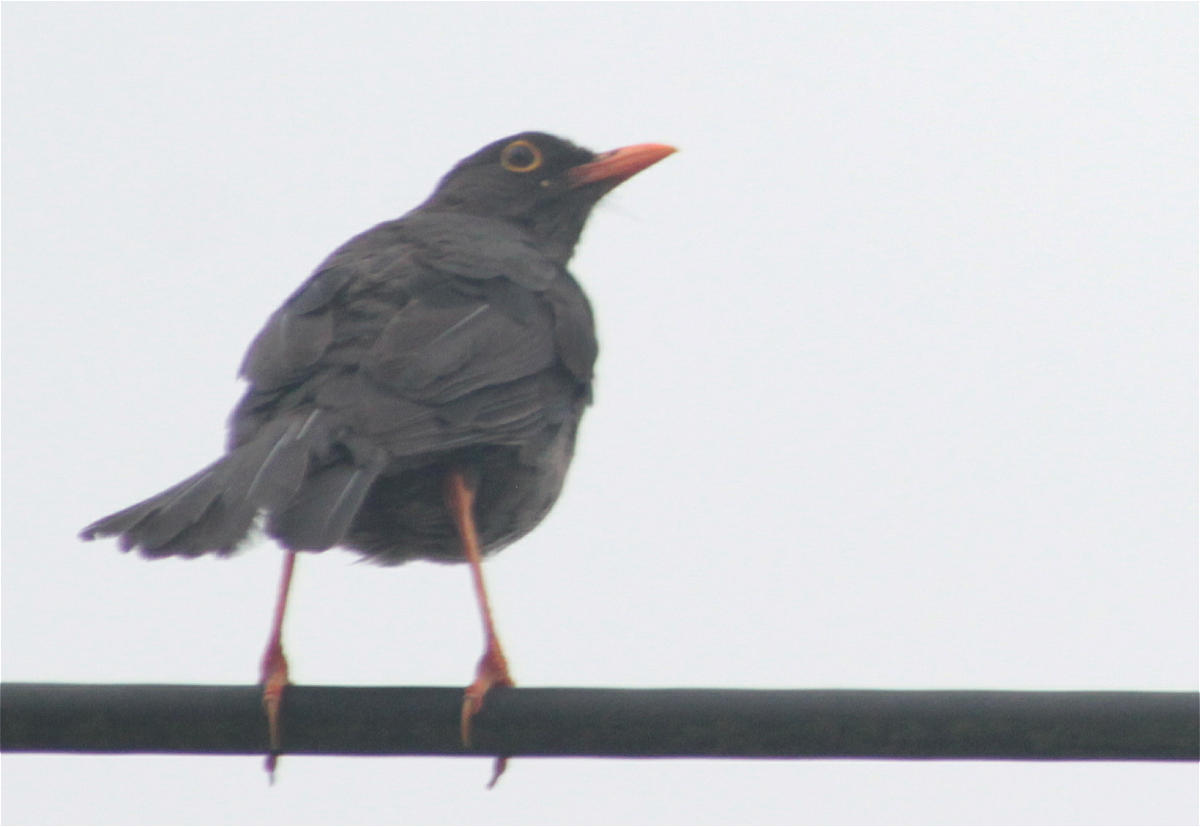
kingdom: Animalia
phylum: Chordata
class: Aves
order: Passeriformes
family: Turdidae
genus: Turdus
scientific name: Turdus fuscater
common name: Great thrush
